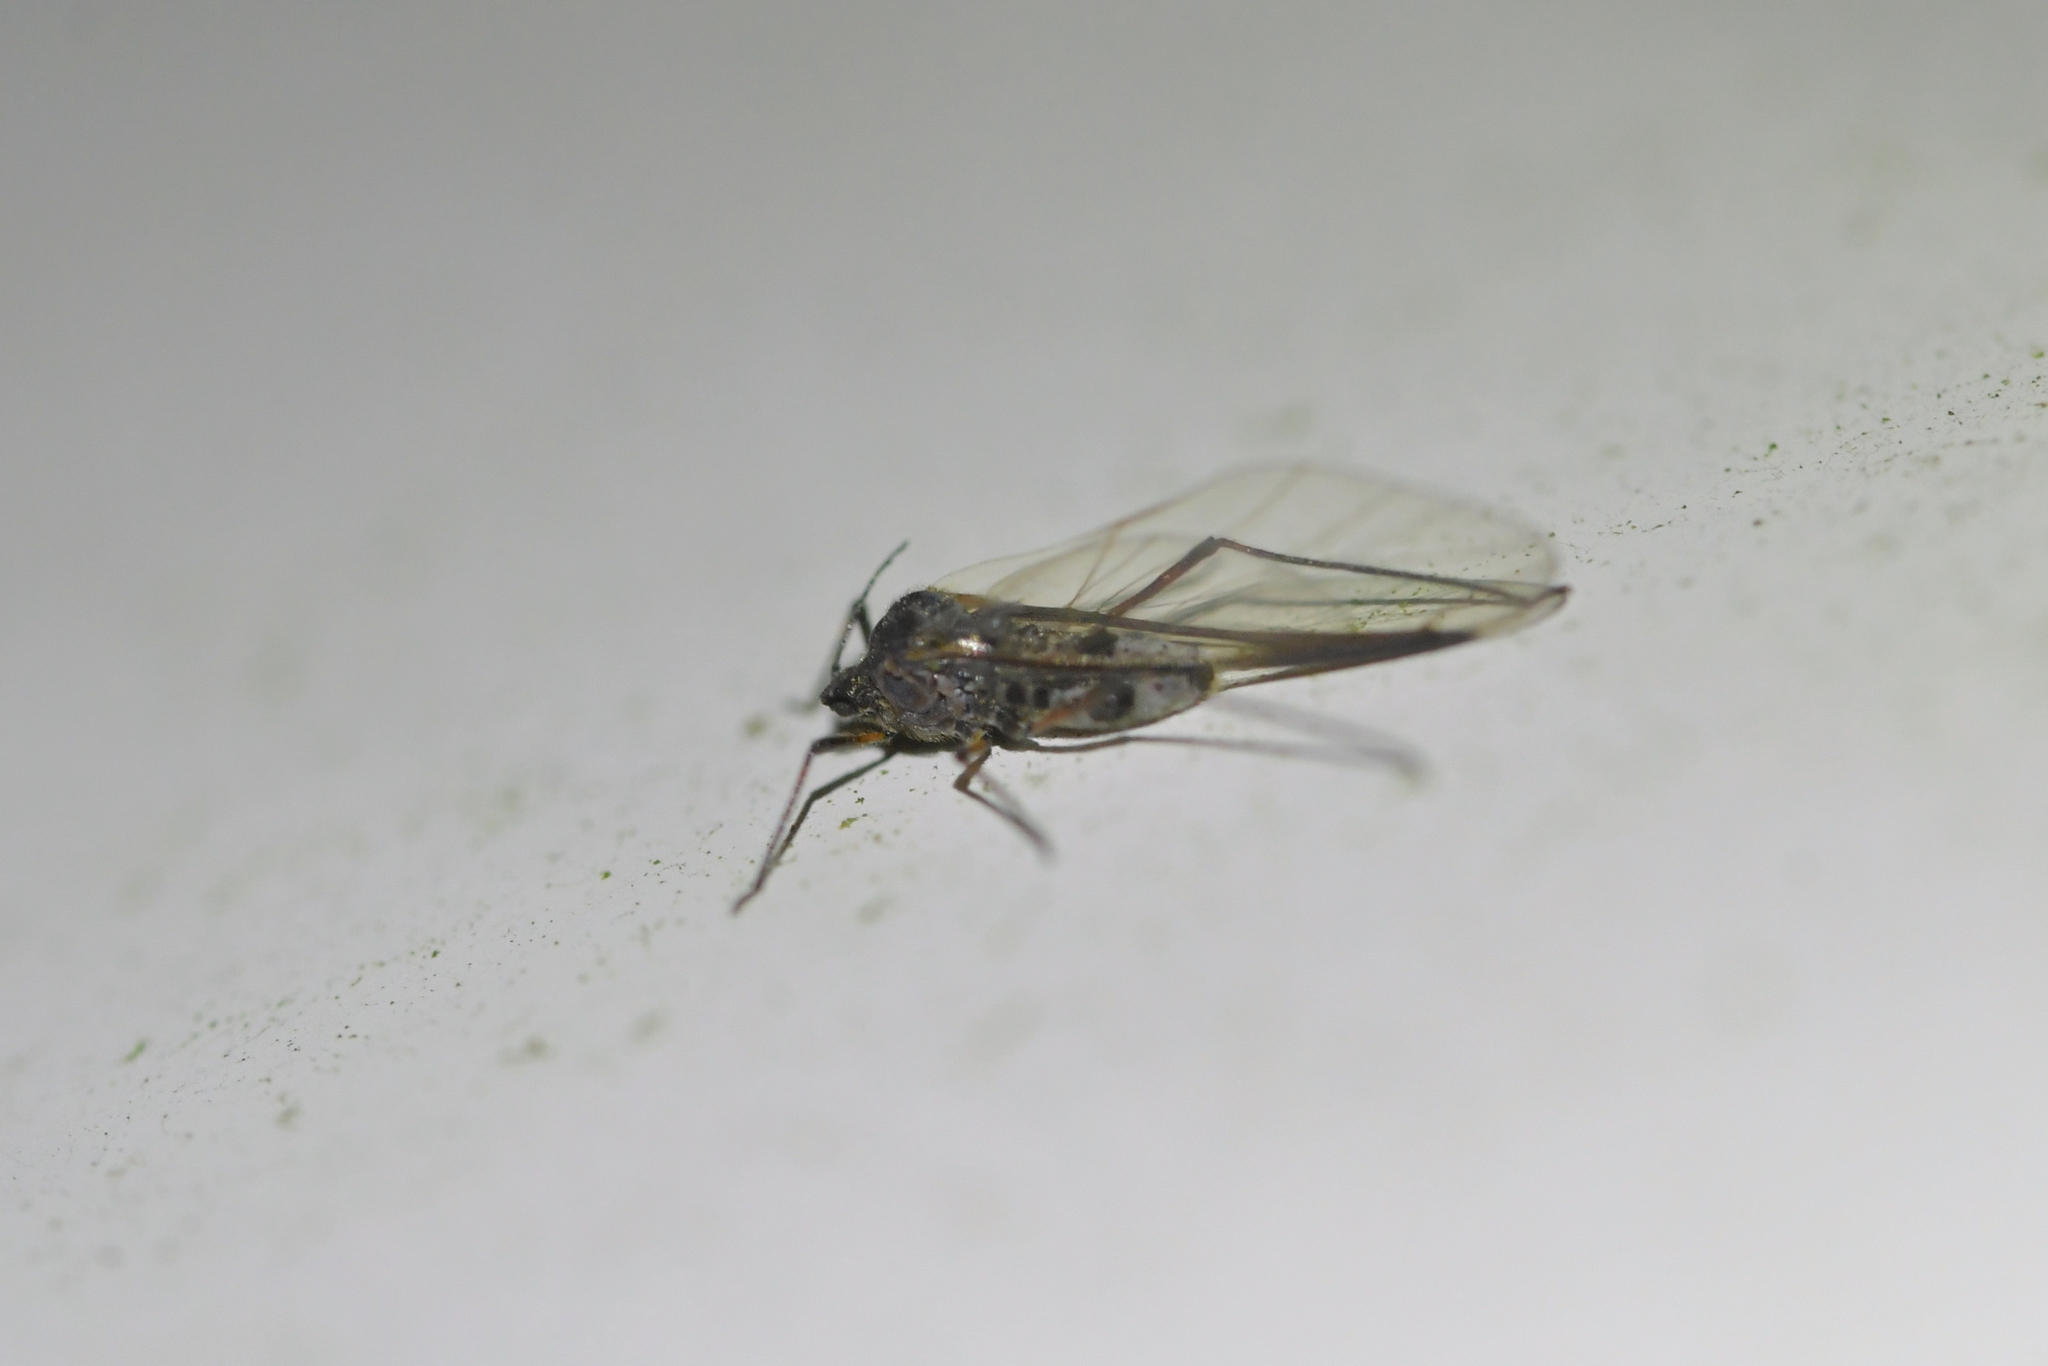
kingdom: Animalia
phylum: Arthropoda
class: Insecta
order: Hemiptera
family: Aphididae
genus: Tuberolachnus
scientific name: Tuberolachnus salignus
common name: Giant willow aphid
